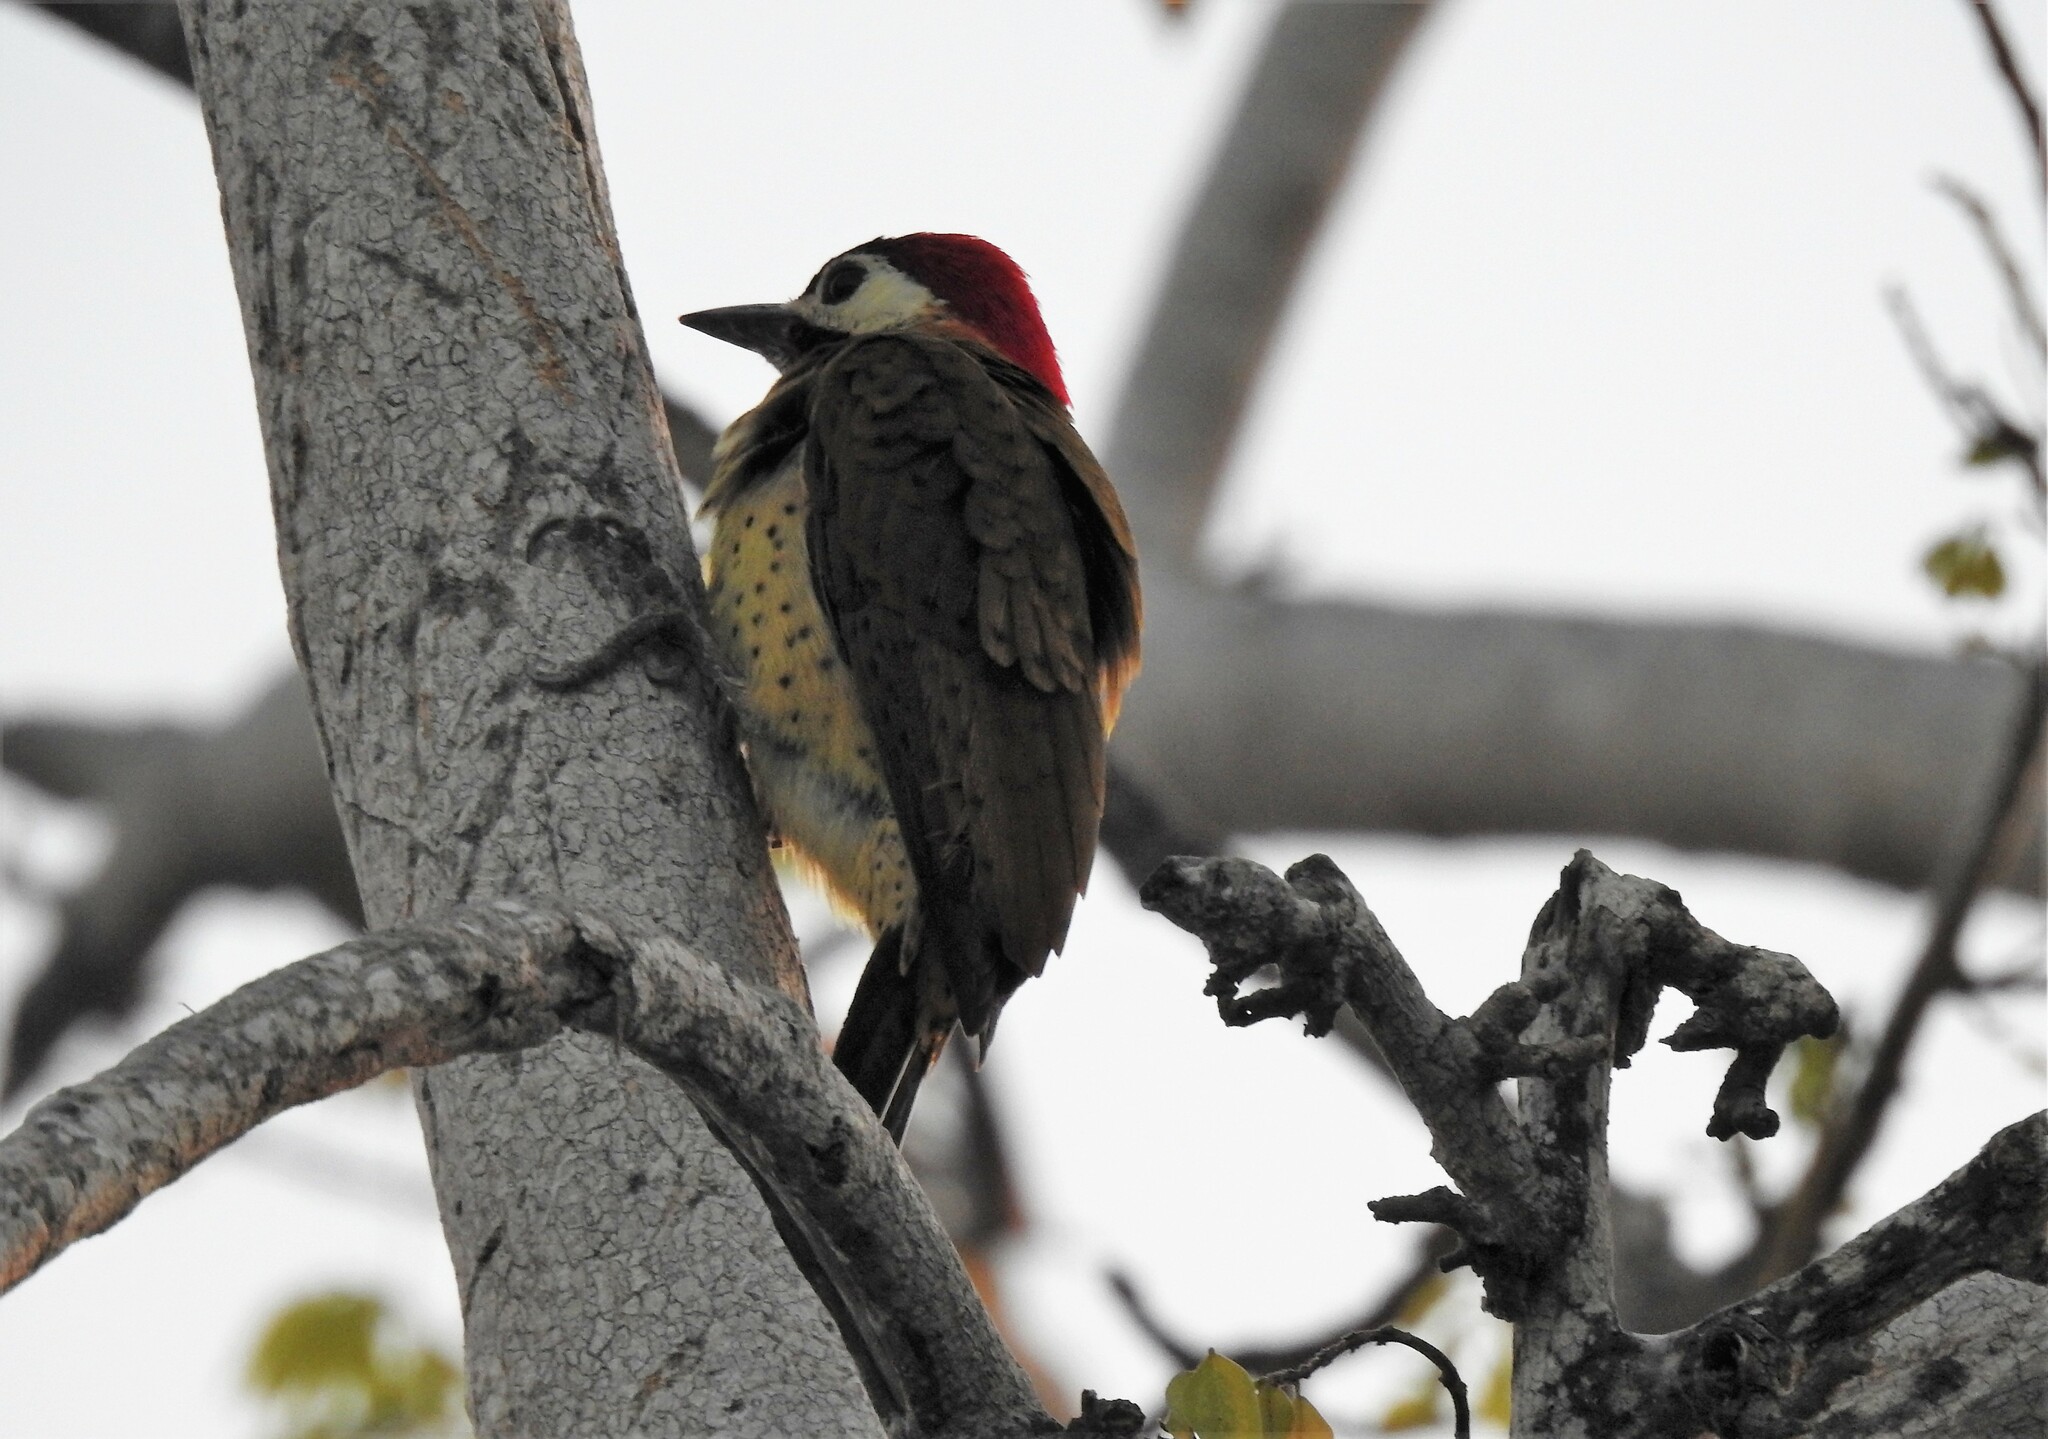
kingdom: Animalia
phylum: Chordata
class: Aves
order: Piciformes
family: Picidae
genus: Colaptes
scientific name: Colaptes punctigula
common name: Spot-breasted woodpecker
